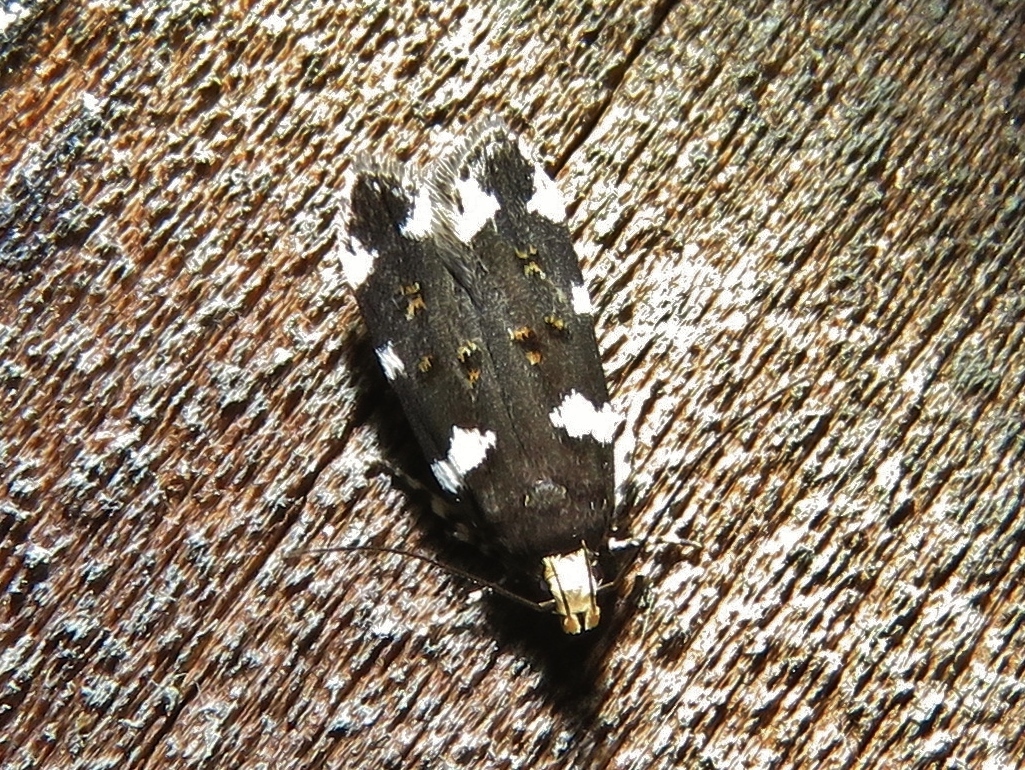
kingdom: Animalia
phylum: Arthropoda
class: Insecta
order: Lepidoptera
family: Gelechiidae
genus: Fascista
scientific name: Fascista cercerisella
